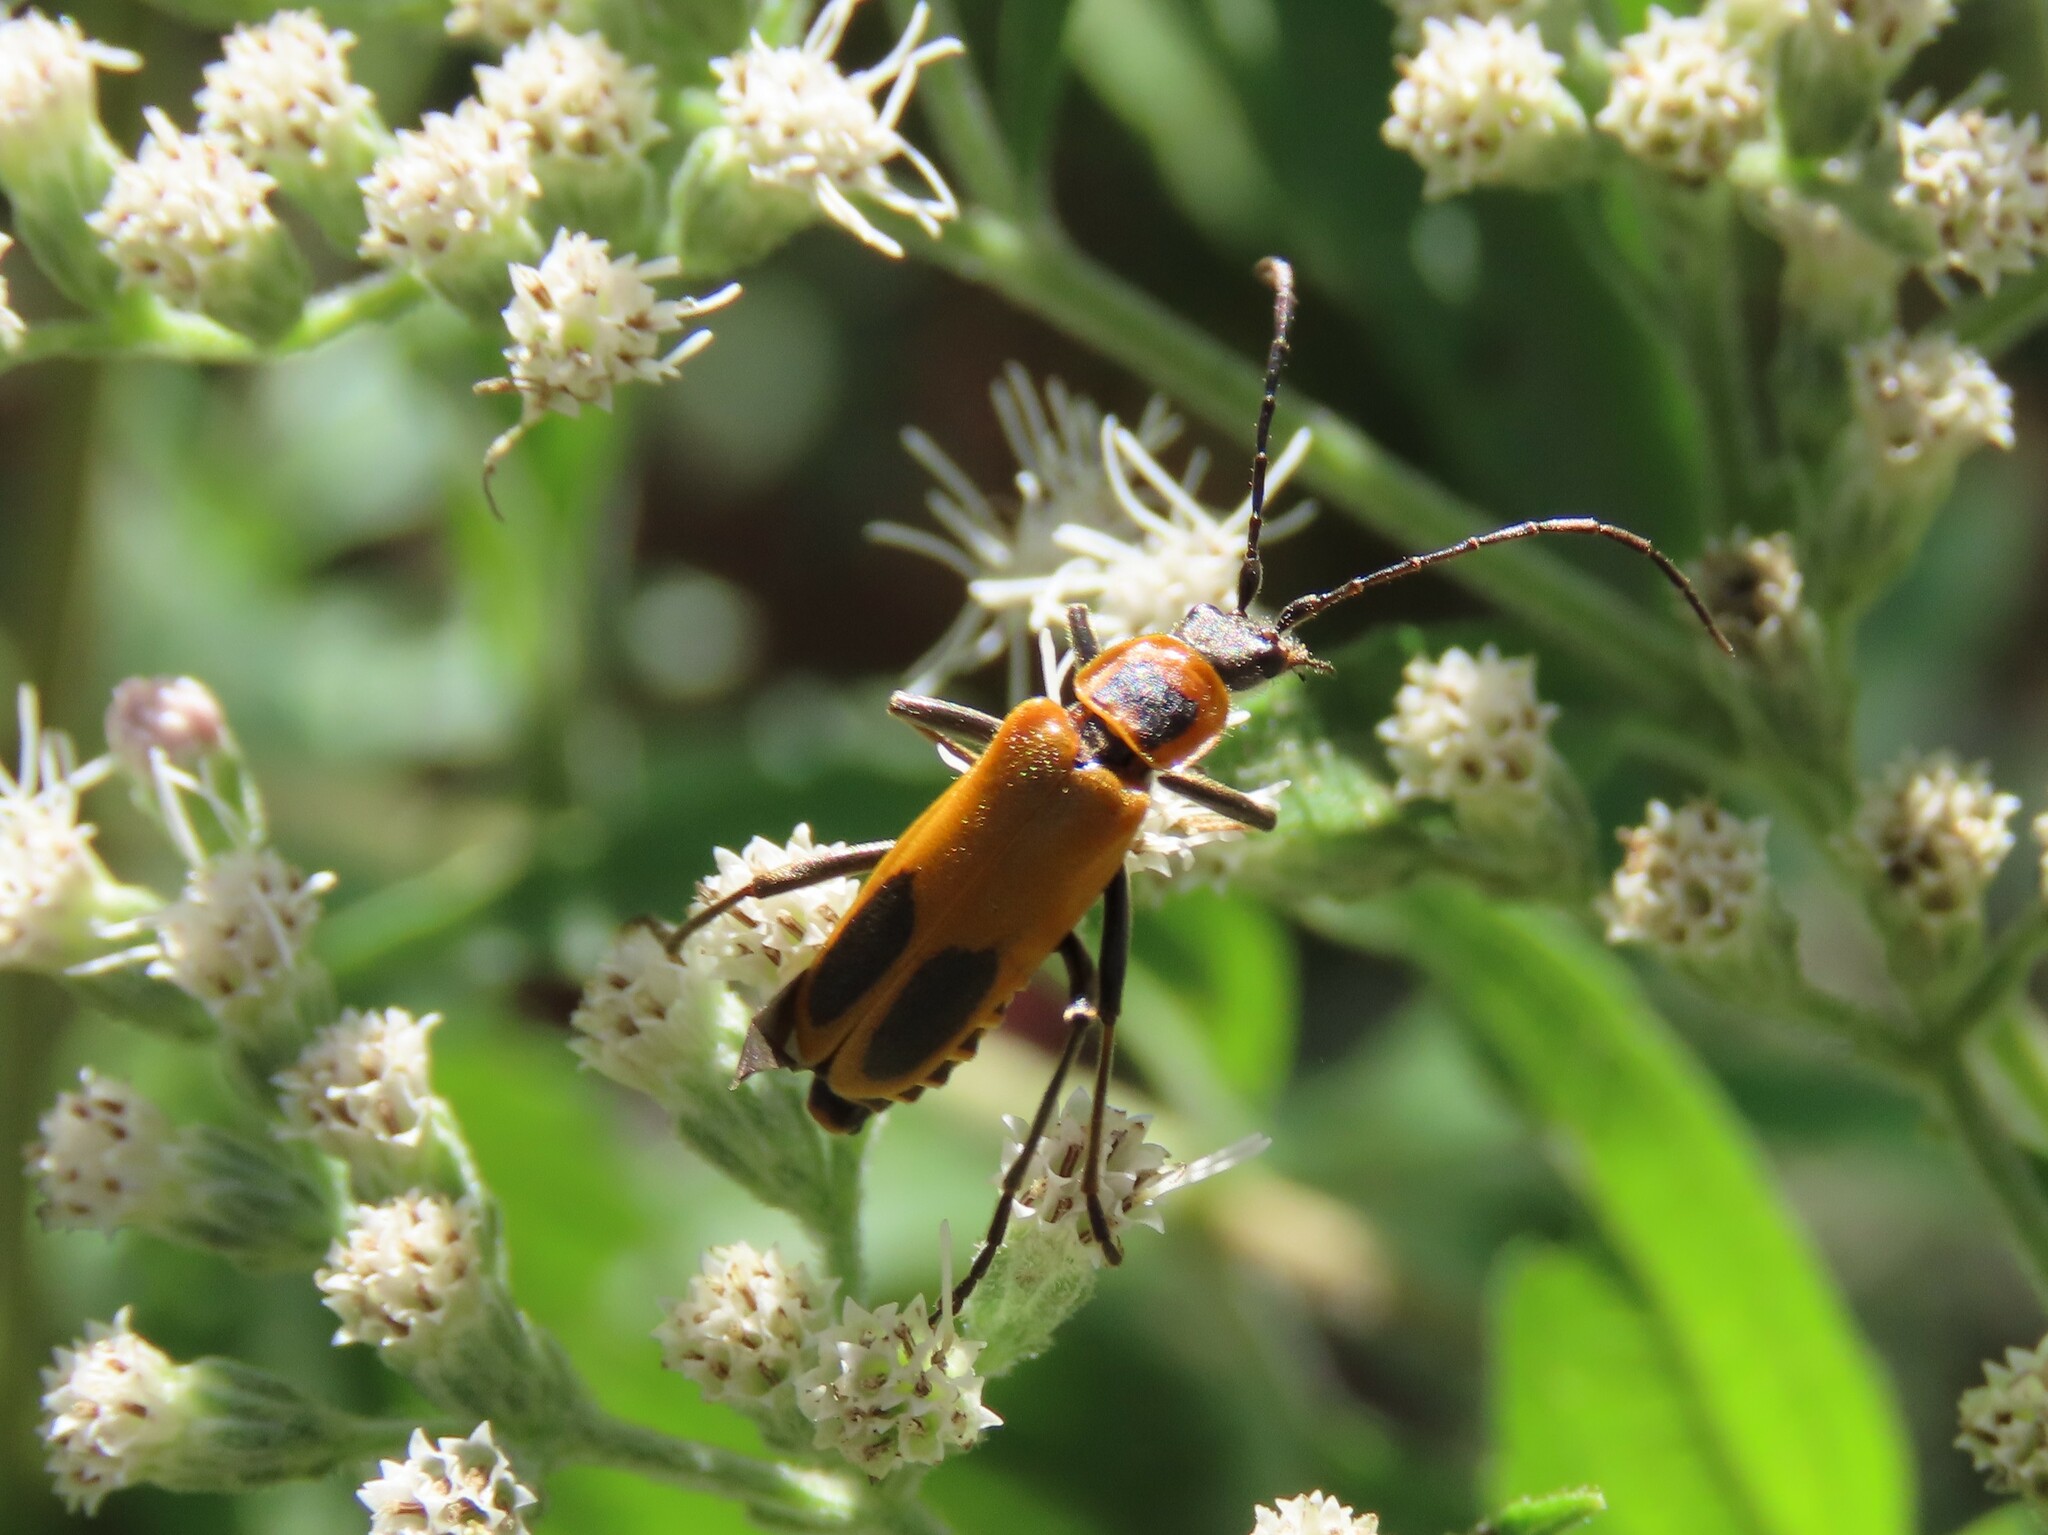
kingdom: Animalia
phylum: Arthropoda
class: Insecta
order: Coleoptera
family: Cantharidae
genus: Chauliognathus
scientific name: Chauliognathus pensylvanicus
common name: Goldenrod soldier beetle
